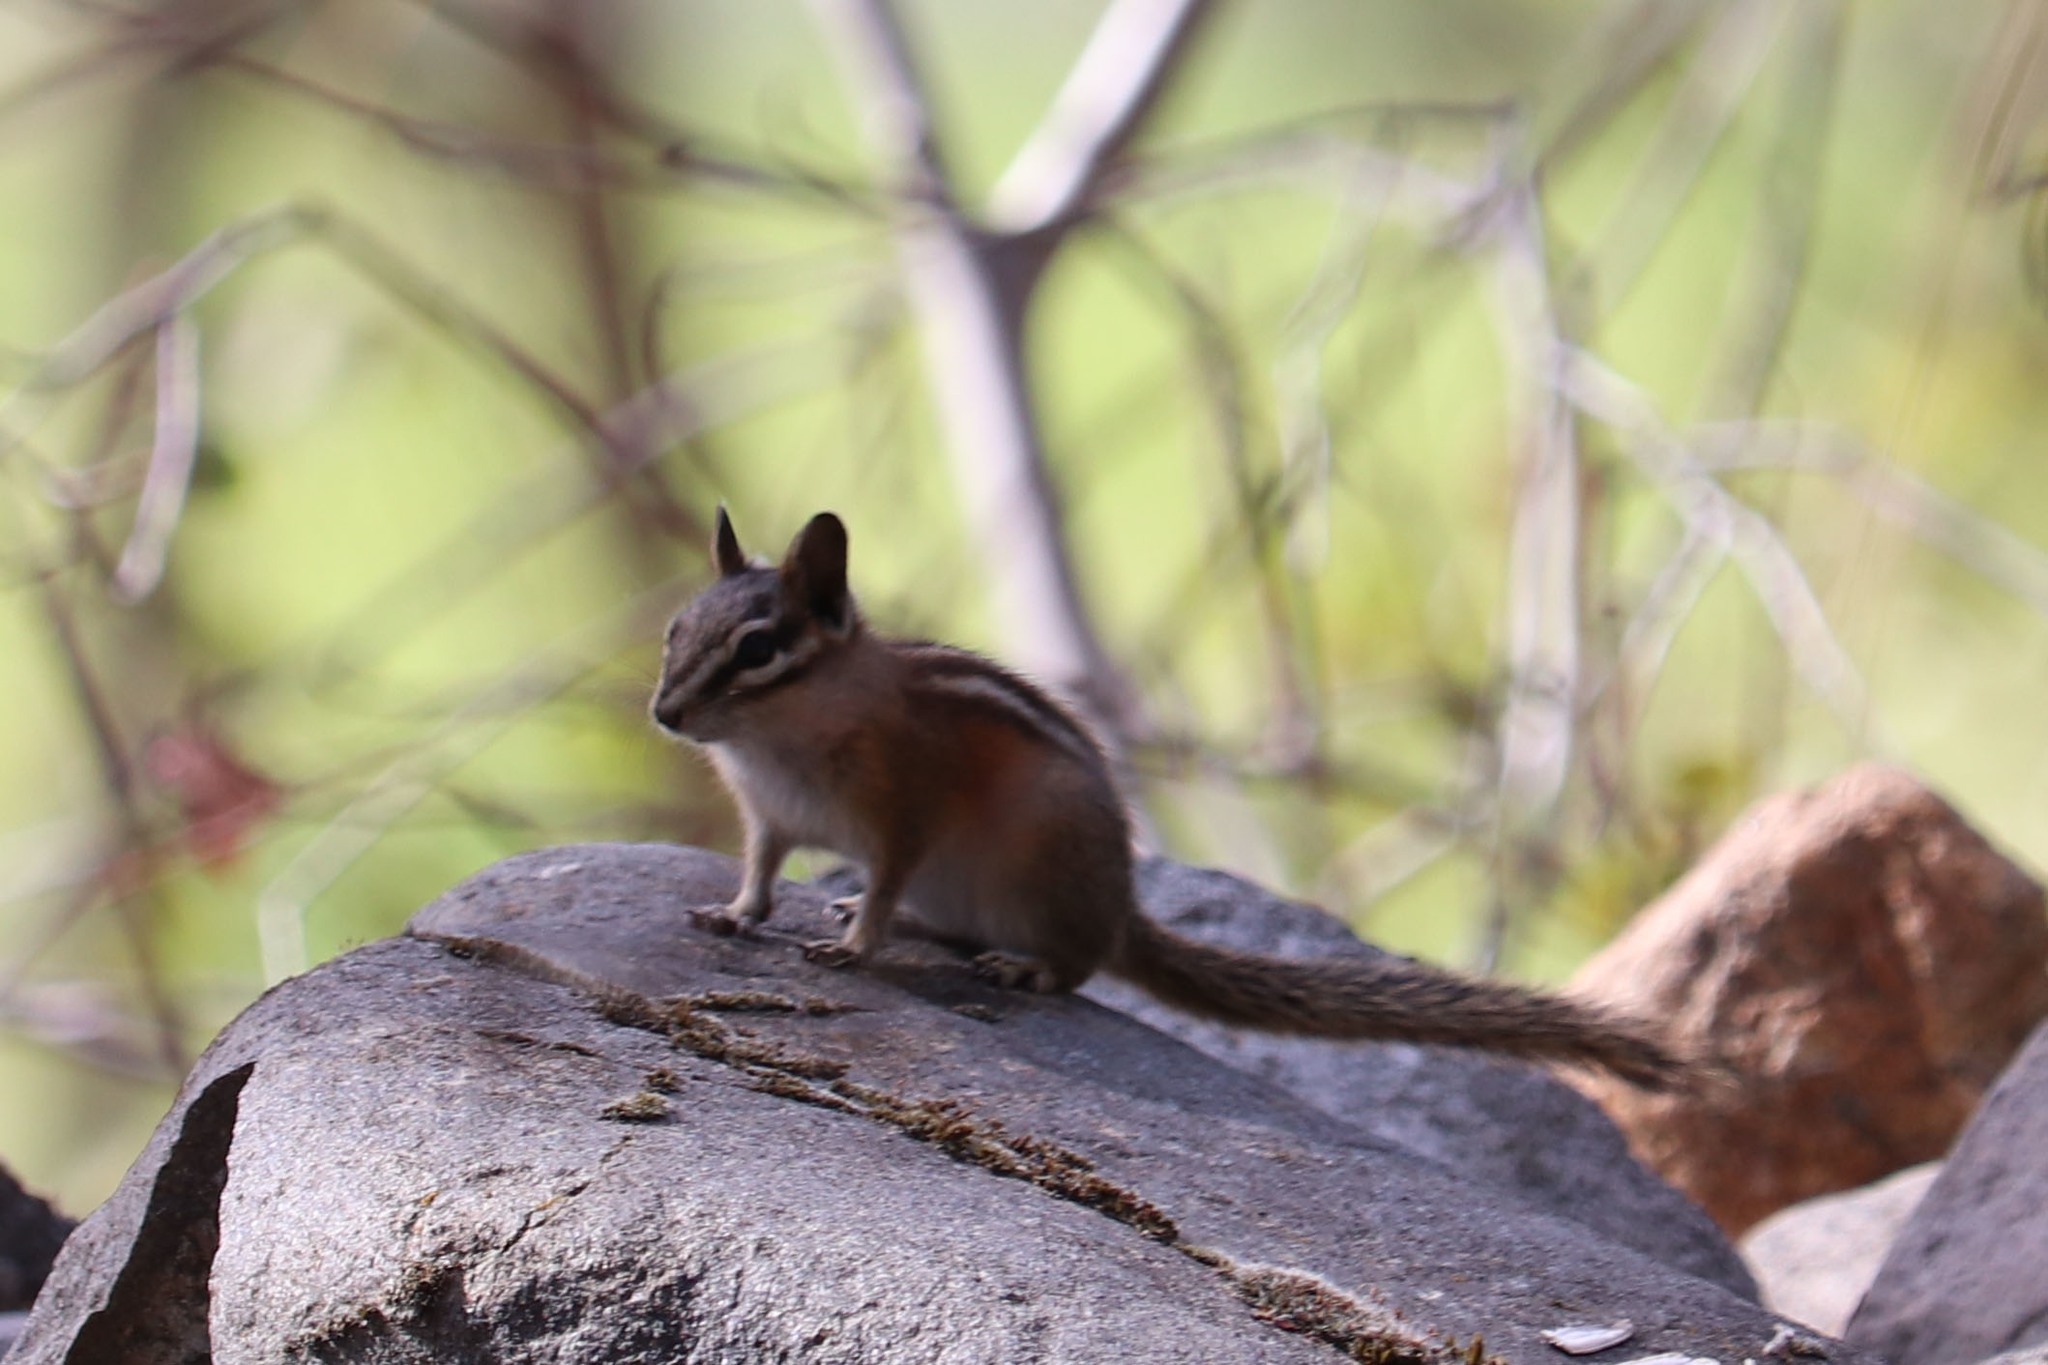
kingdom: Animalia
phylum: Chordata
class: Mammalia
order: Rodentia
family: Sciuridae
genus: Tamias
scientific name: Tamias amoenus
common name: Yellow-pine chipmunk
